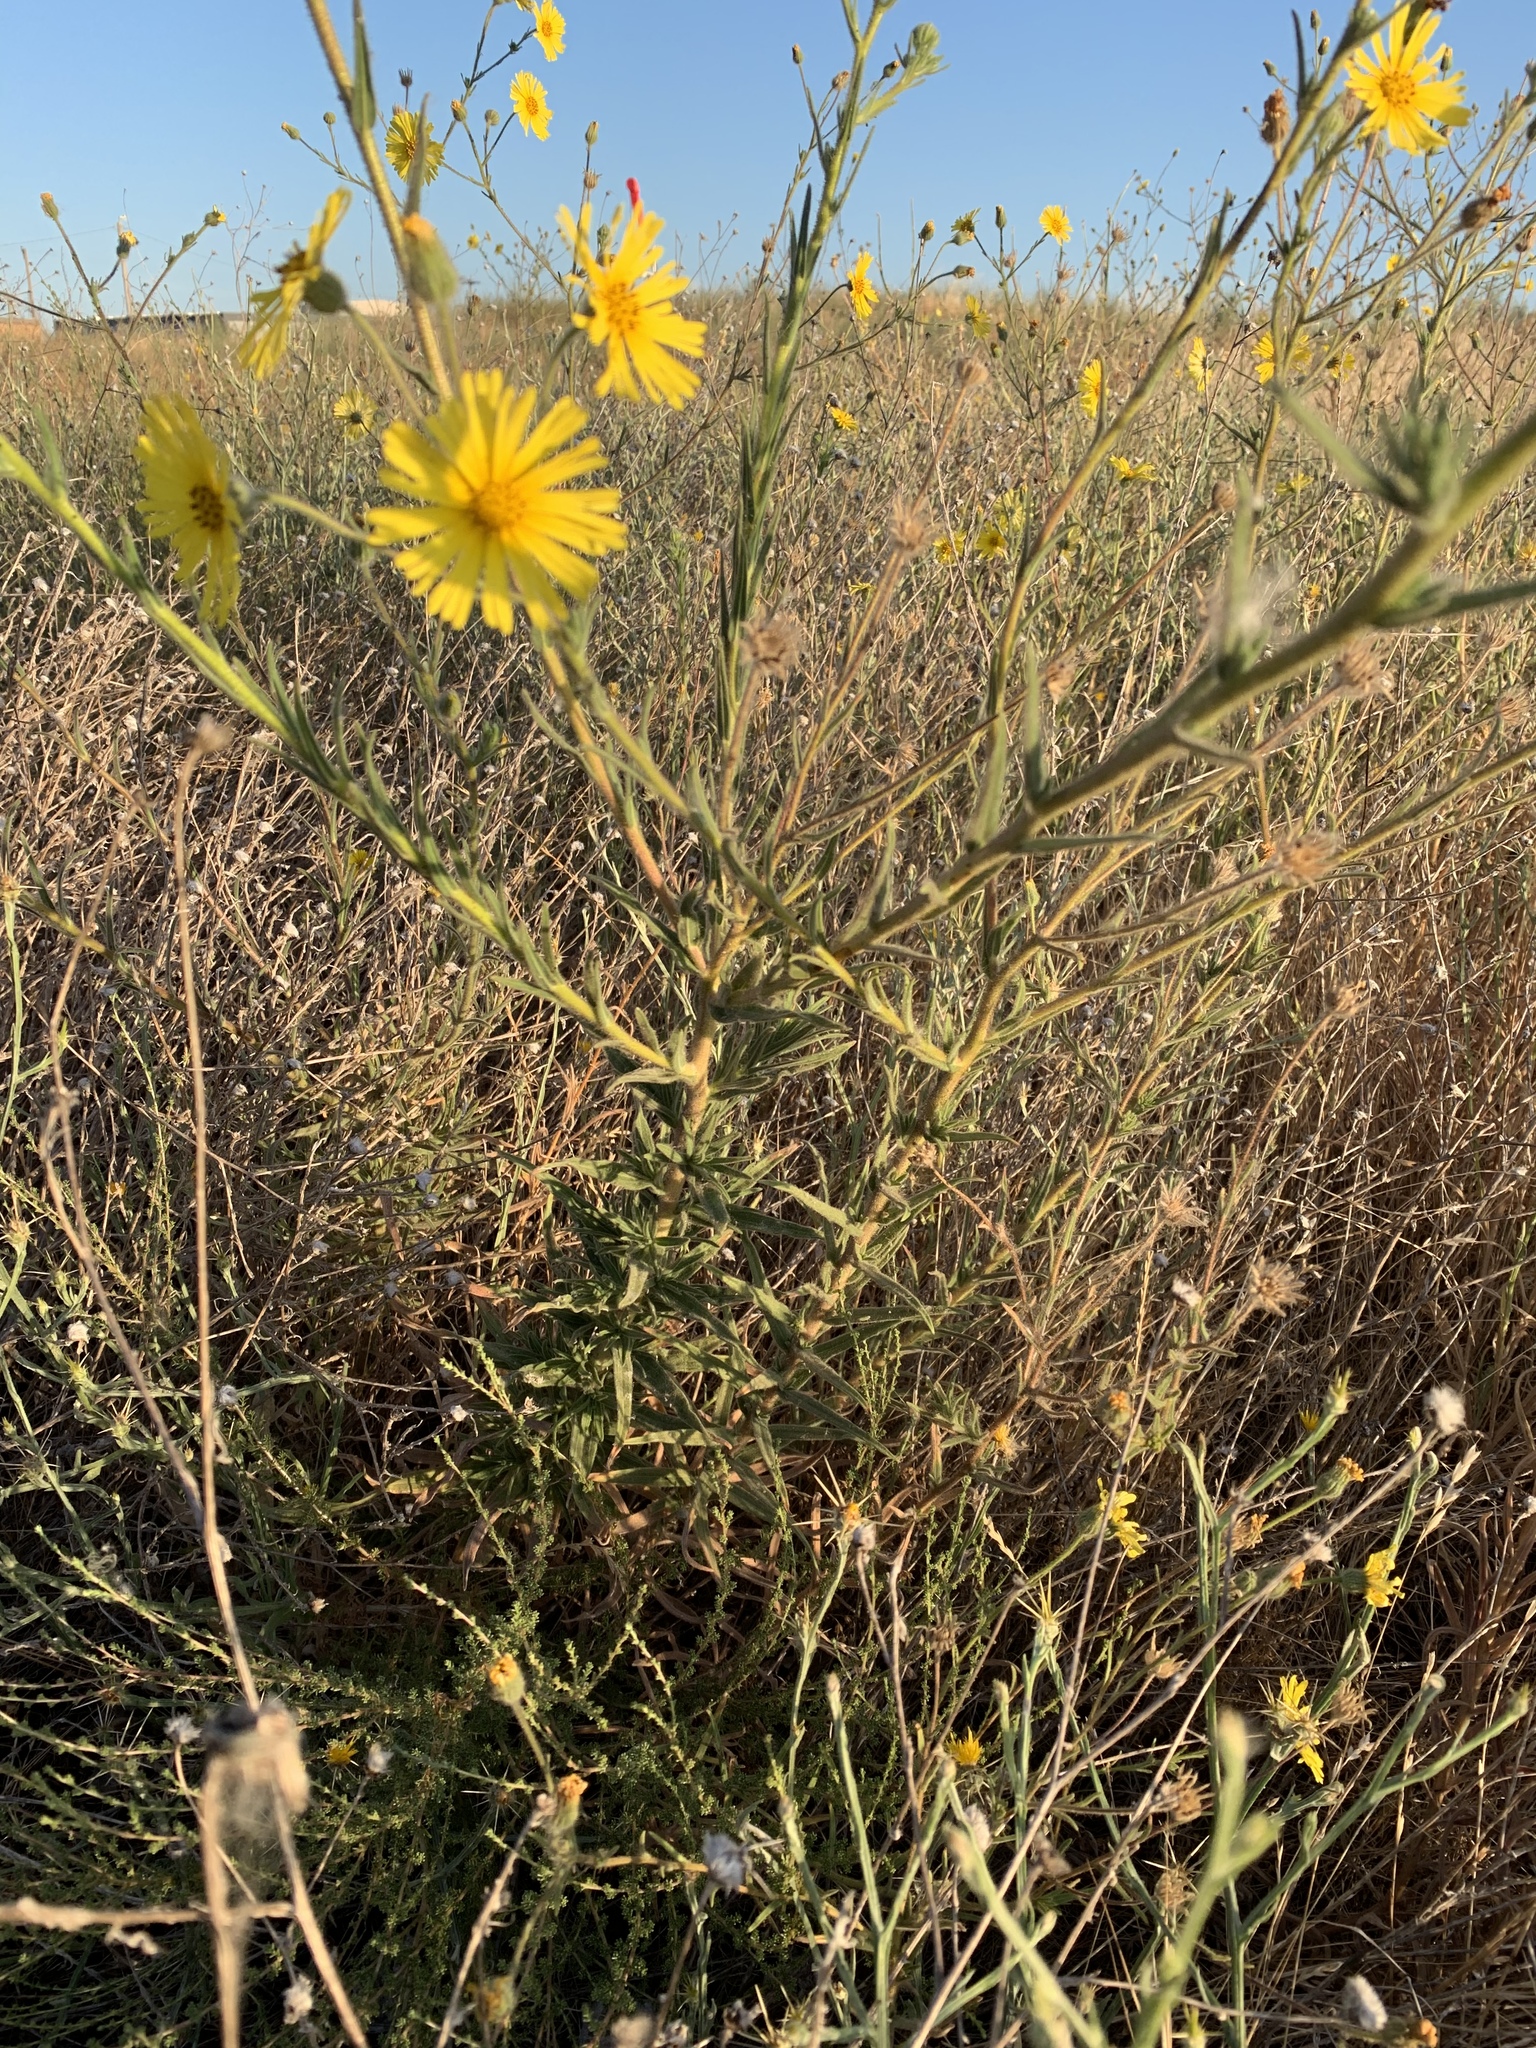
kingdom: Plantae
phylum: Tracheophyta
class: Magnoliopsida
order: Asterales
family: Asteraceae
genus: Madia
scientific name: Madia elegans
